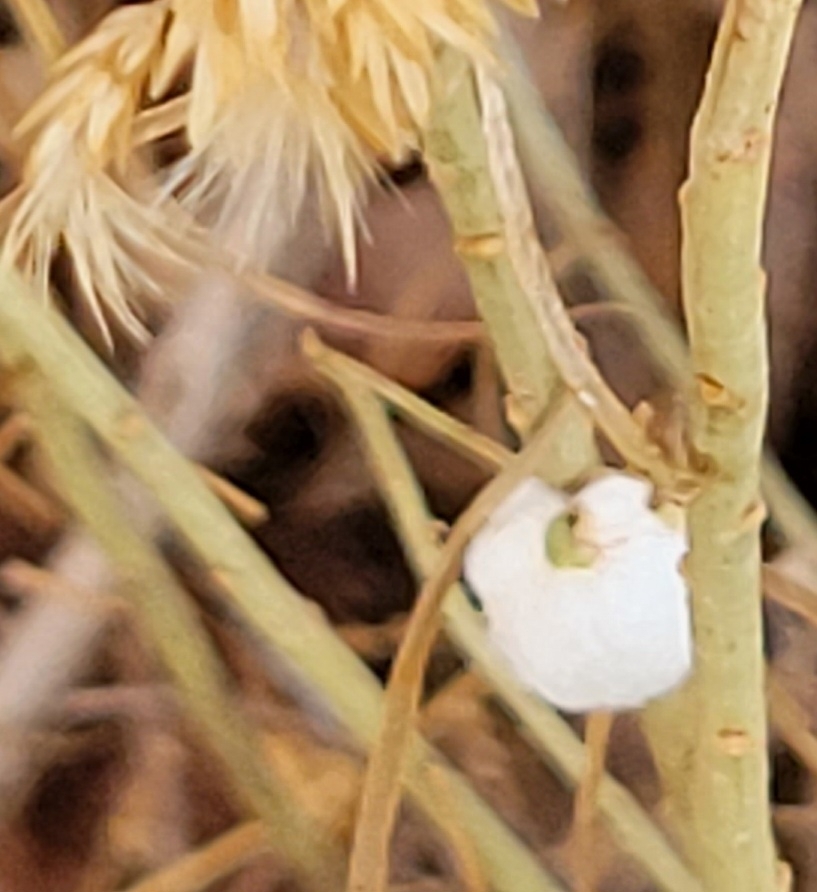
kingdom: Animalia
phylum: Arthropoda
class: Insecta
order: Diptera
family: Tephritidae
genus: Aciurina
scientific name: Aciurina bigeloviae
